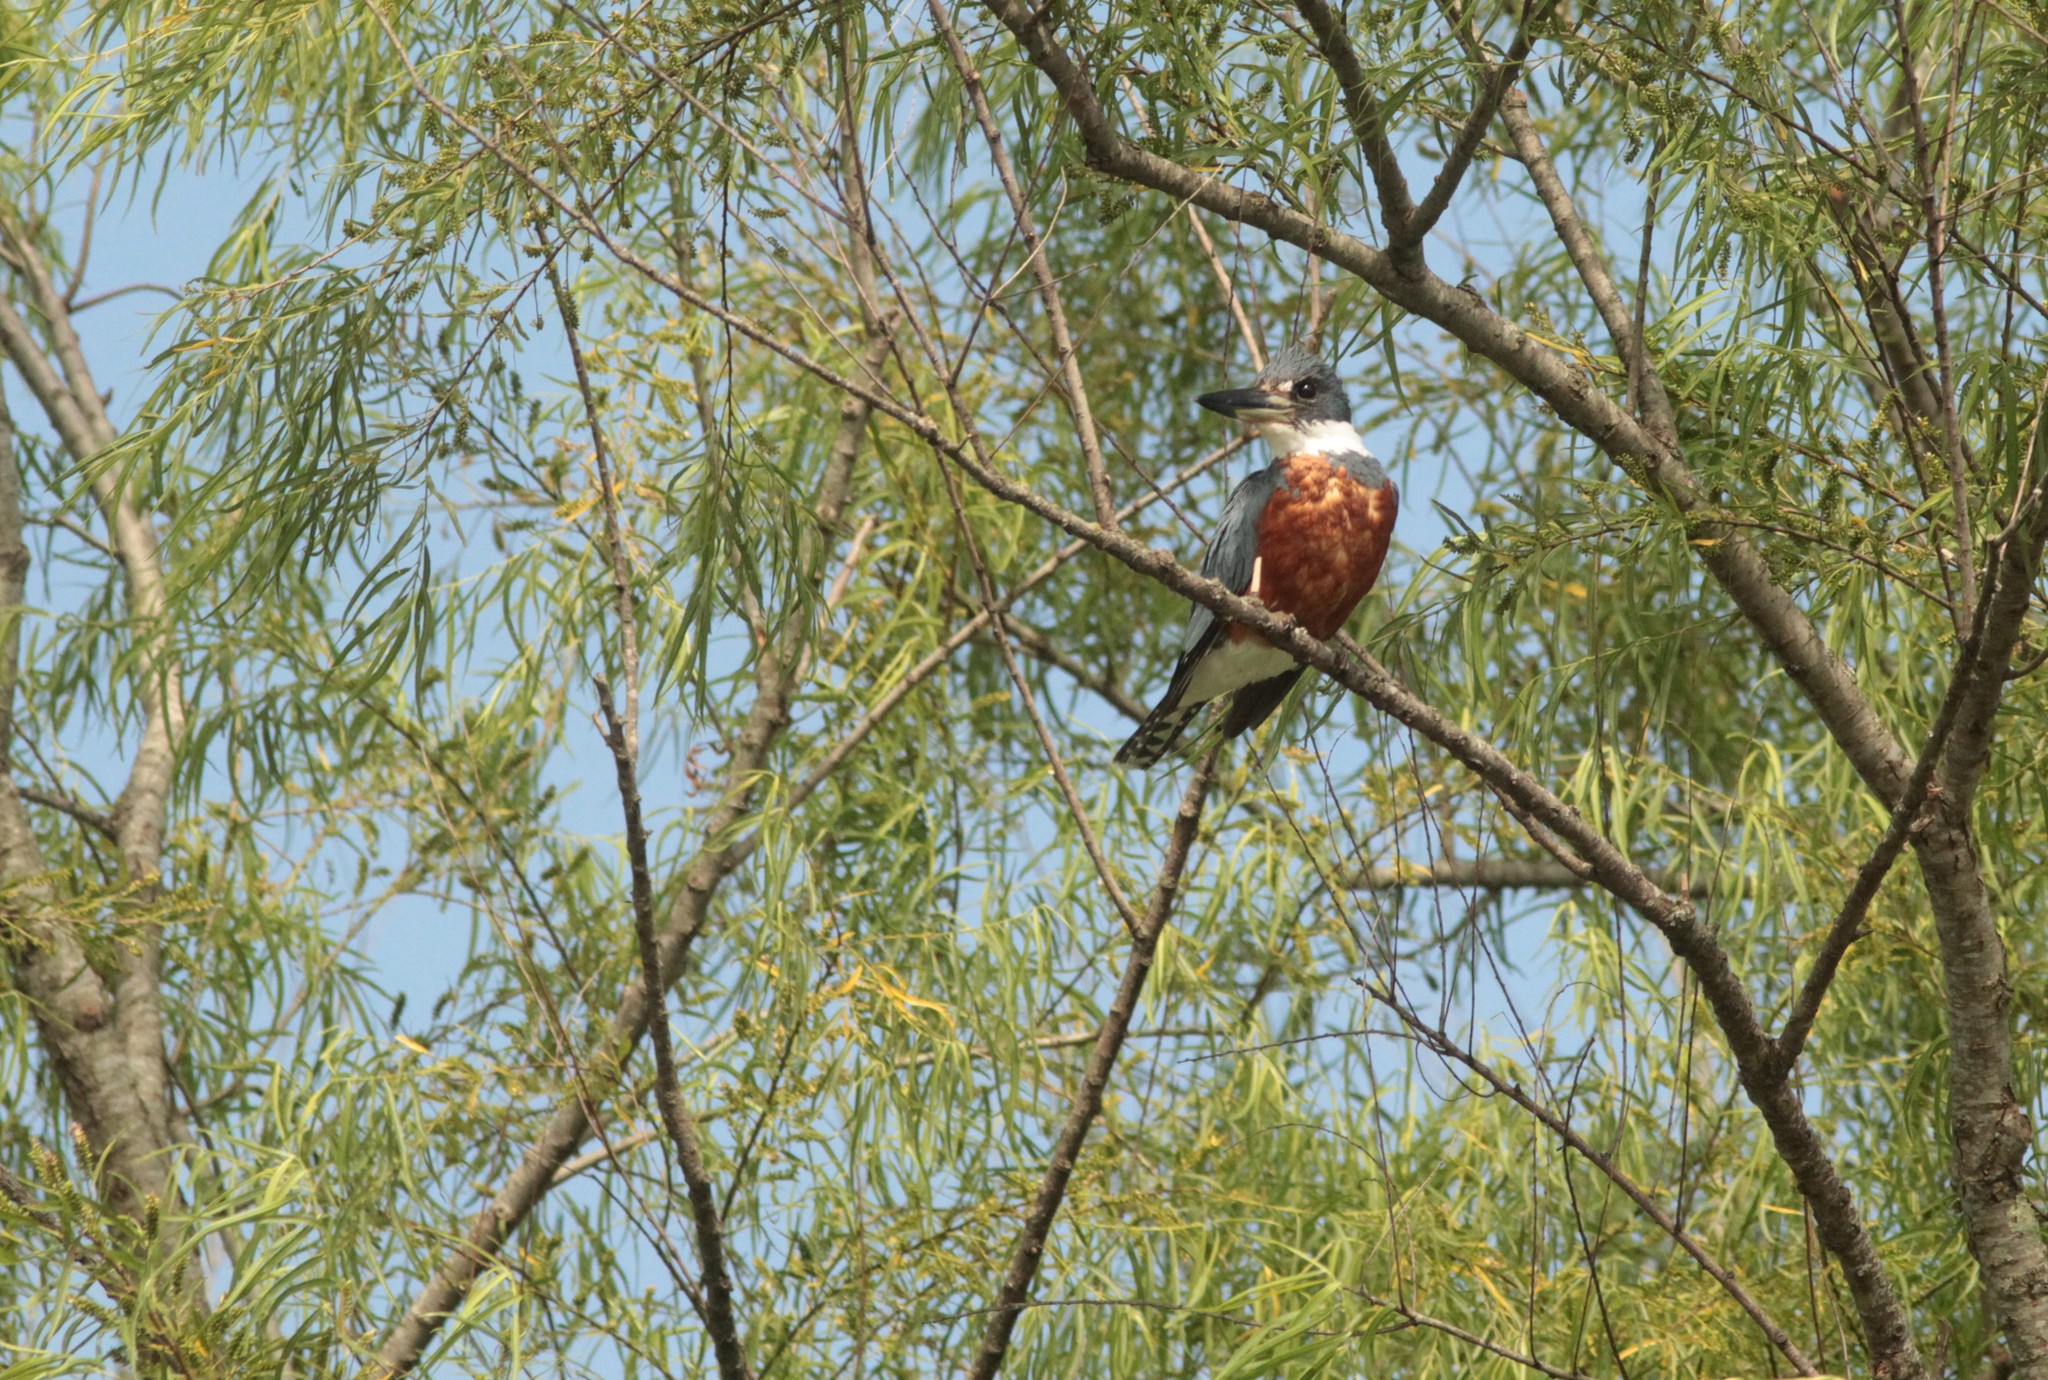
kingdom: Animalia
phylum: Chordata
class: Aves
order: Coraciiformes
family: Alcedinidae
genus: Megaceryle
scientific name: Megaceryle torquata
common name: Ringed kingfisher
